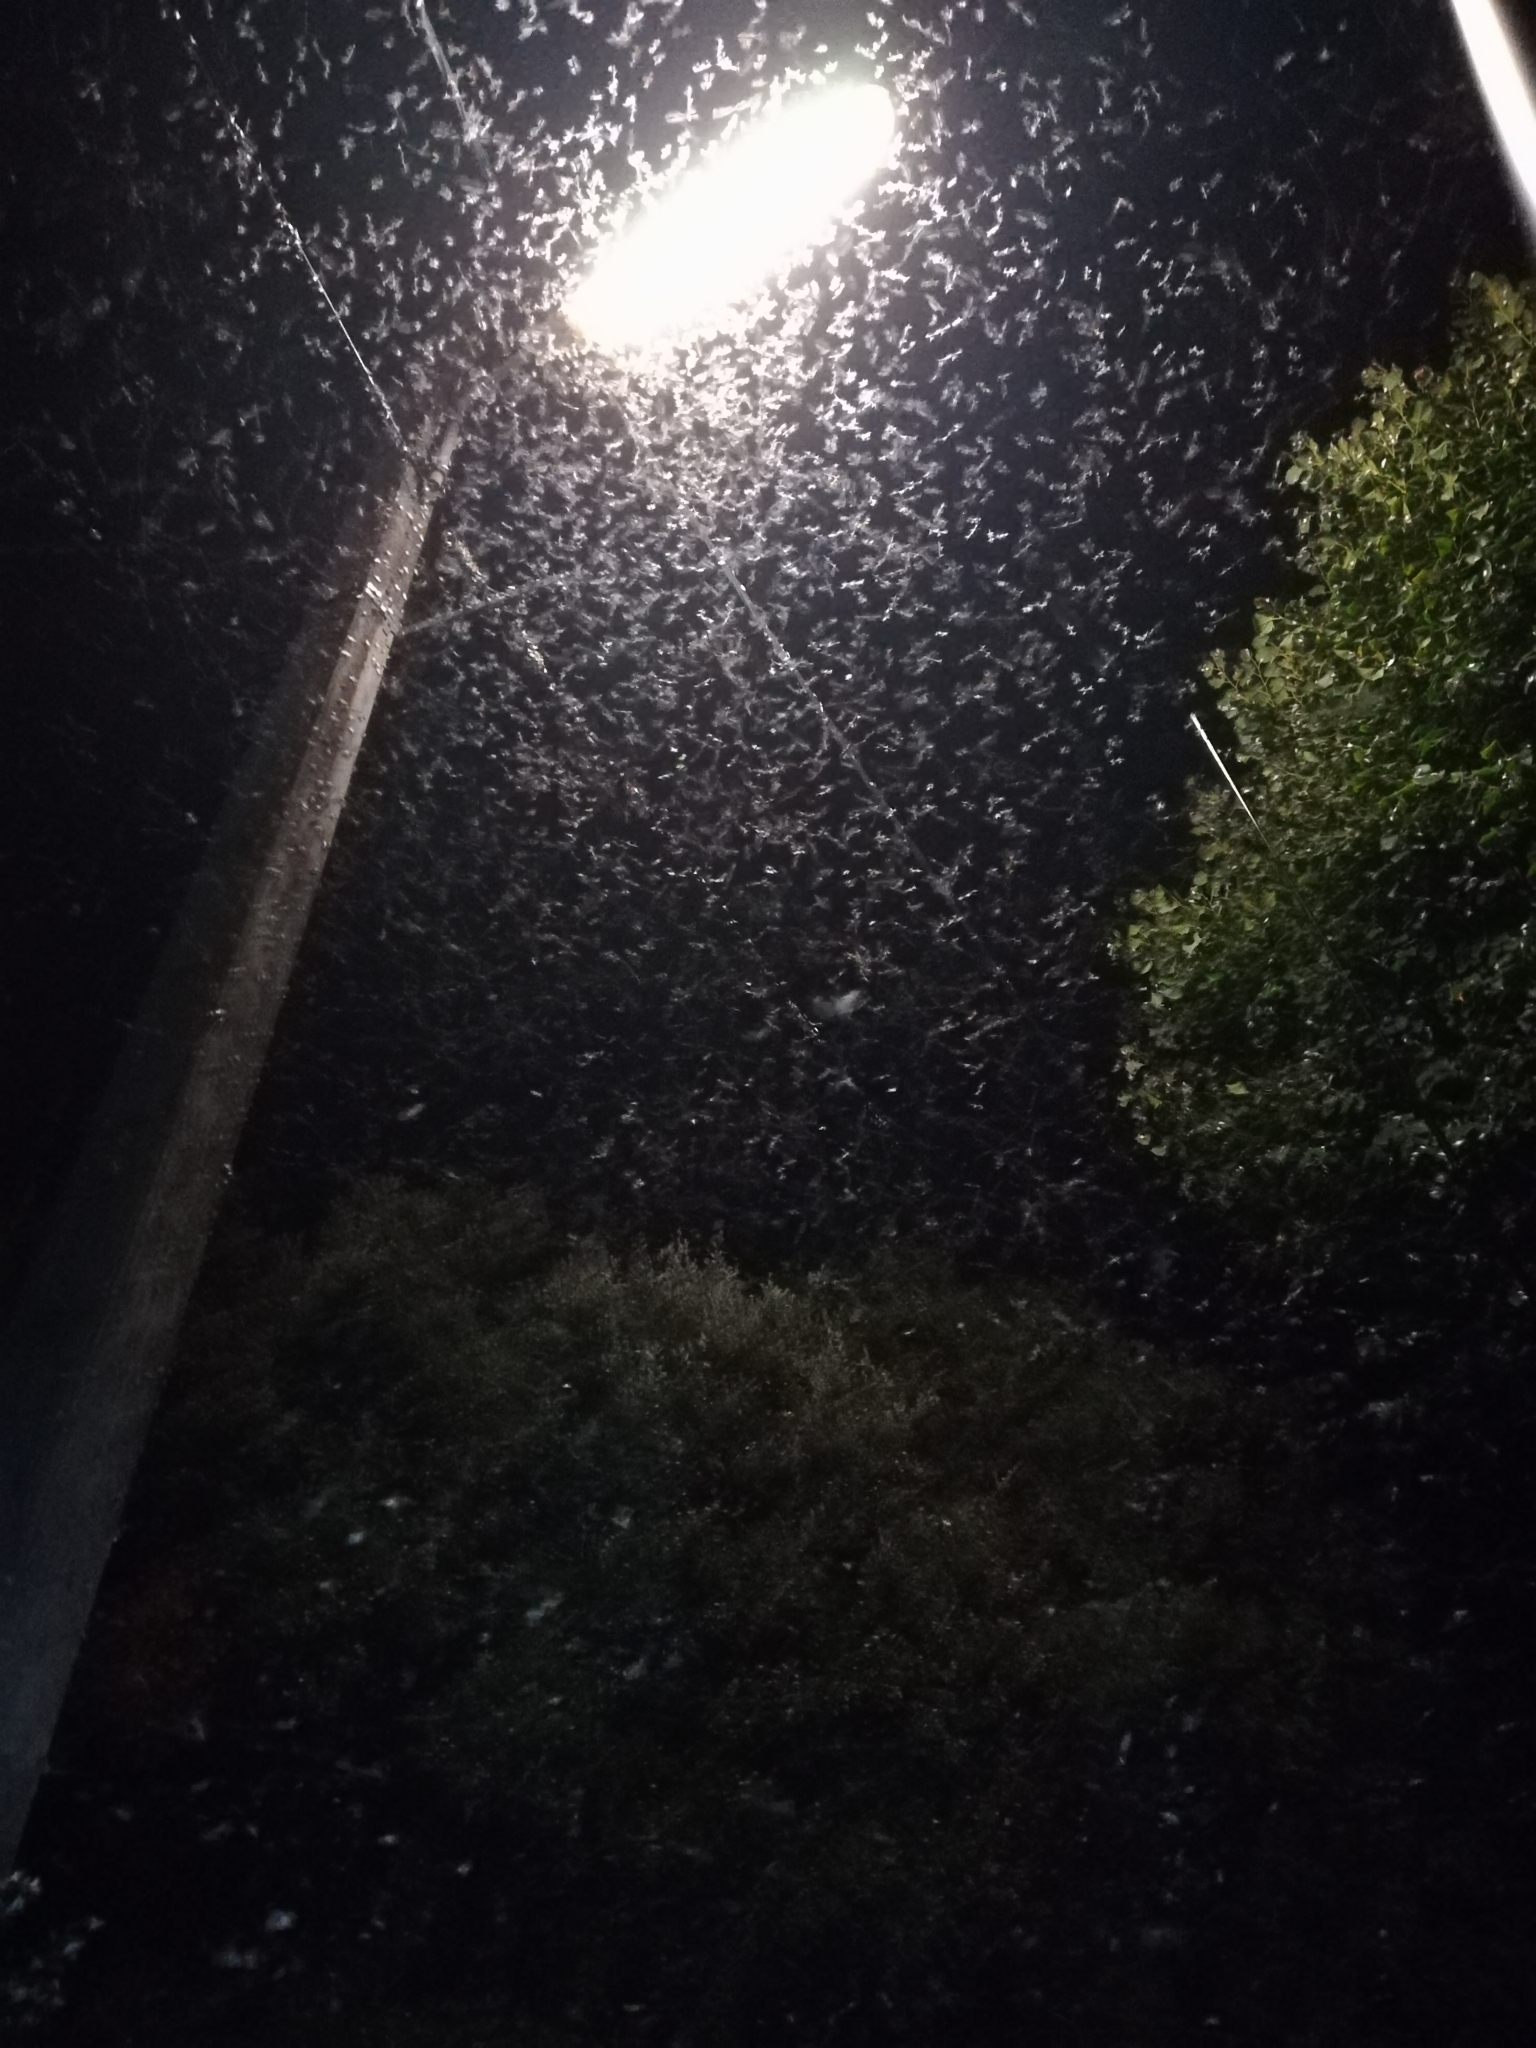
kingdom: Animalia
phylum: Arthropoda
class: Insecta
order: Lepidoptera
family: Crambidae
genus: Cydalima
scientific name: Cydalima perspectalis
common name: Box tree moth
